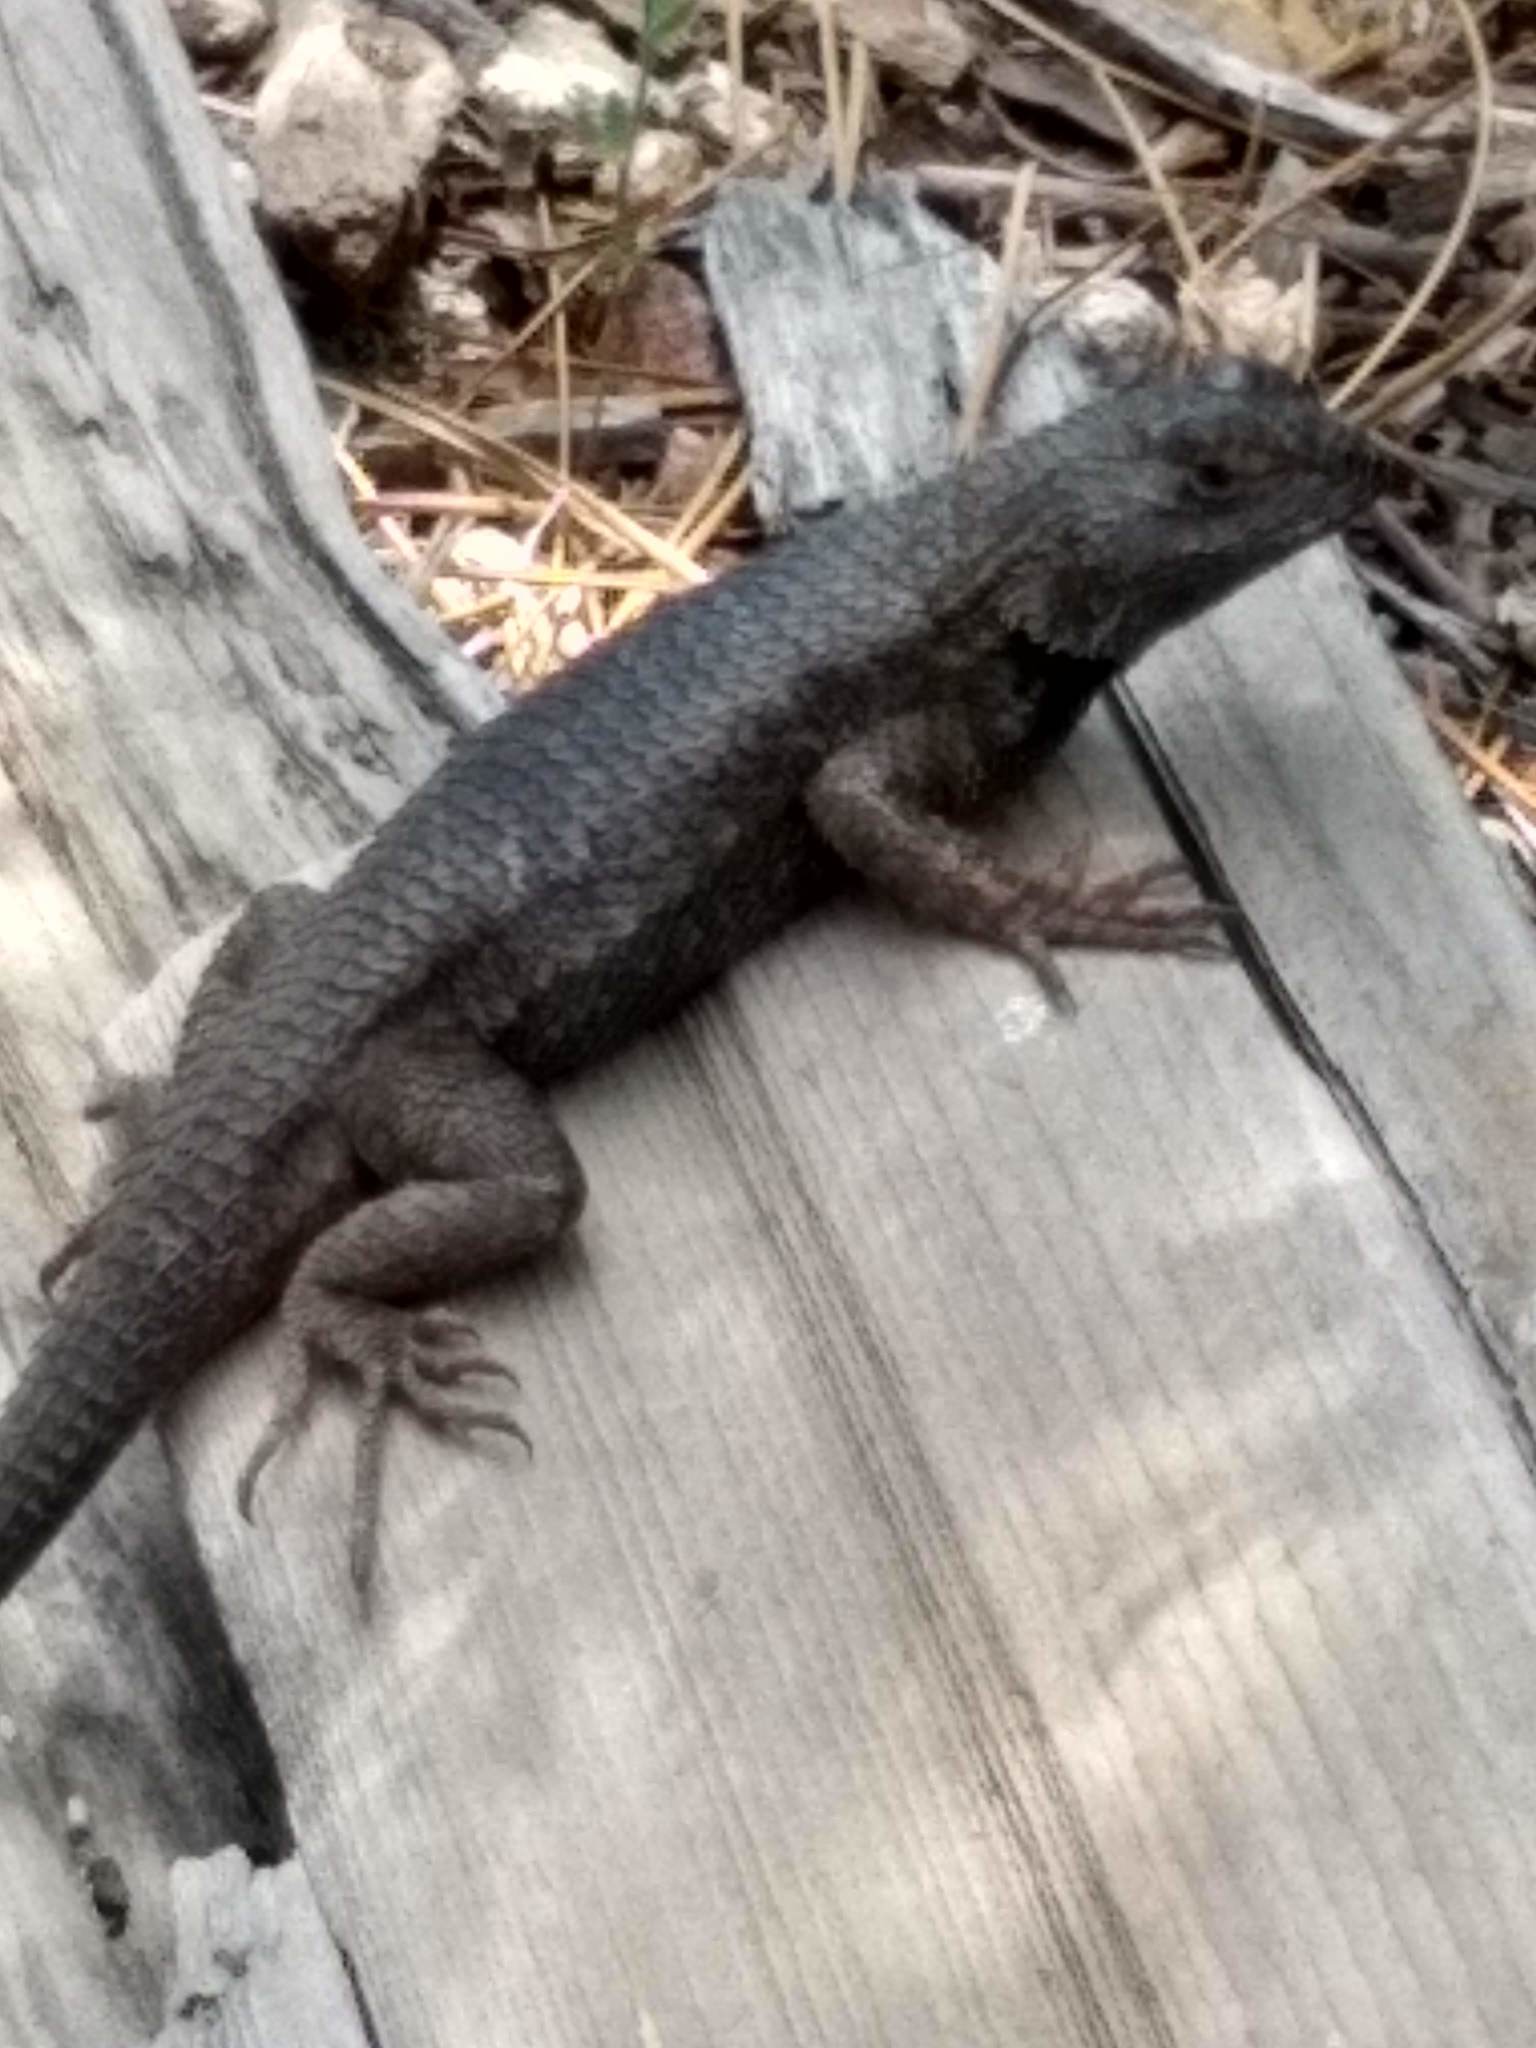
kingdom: Animalia
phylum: Chordata
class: Squamata
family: Phrynosomatidae
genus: Sceloporus
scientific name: Sceloporus occidentalis
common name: Western fence lizard
